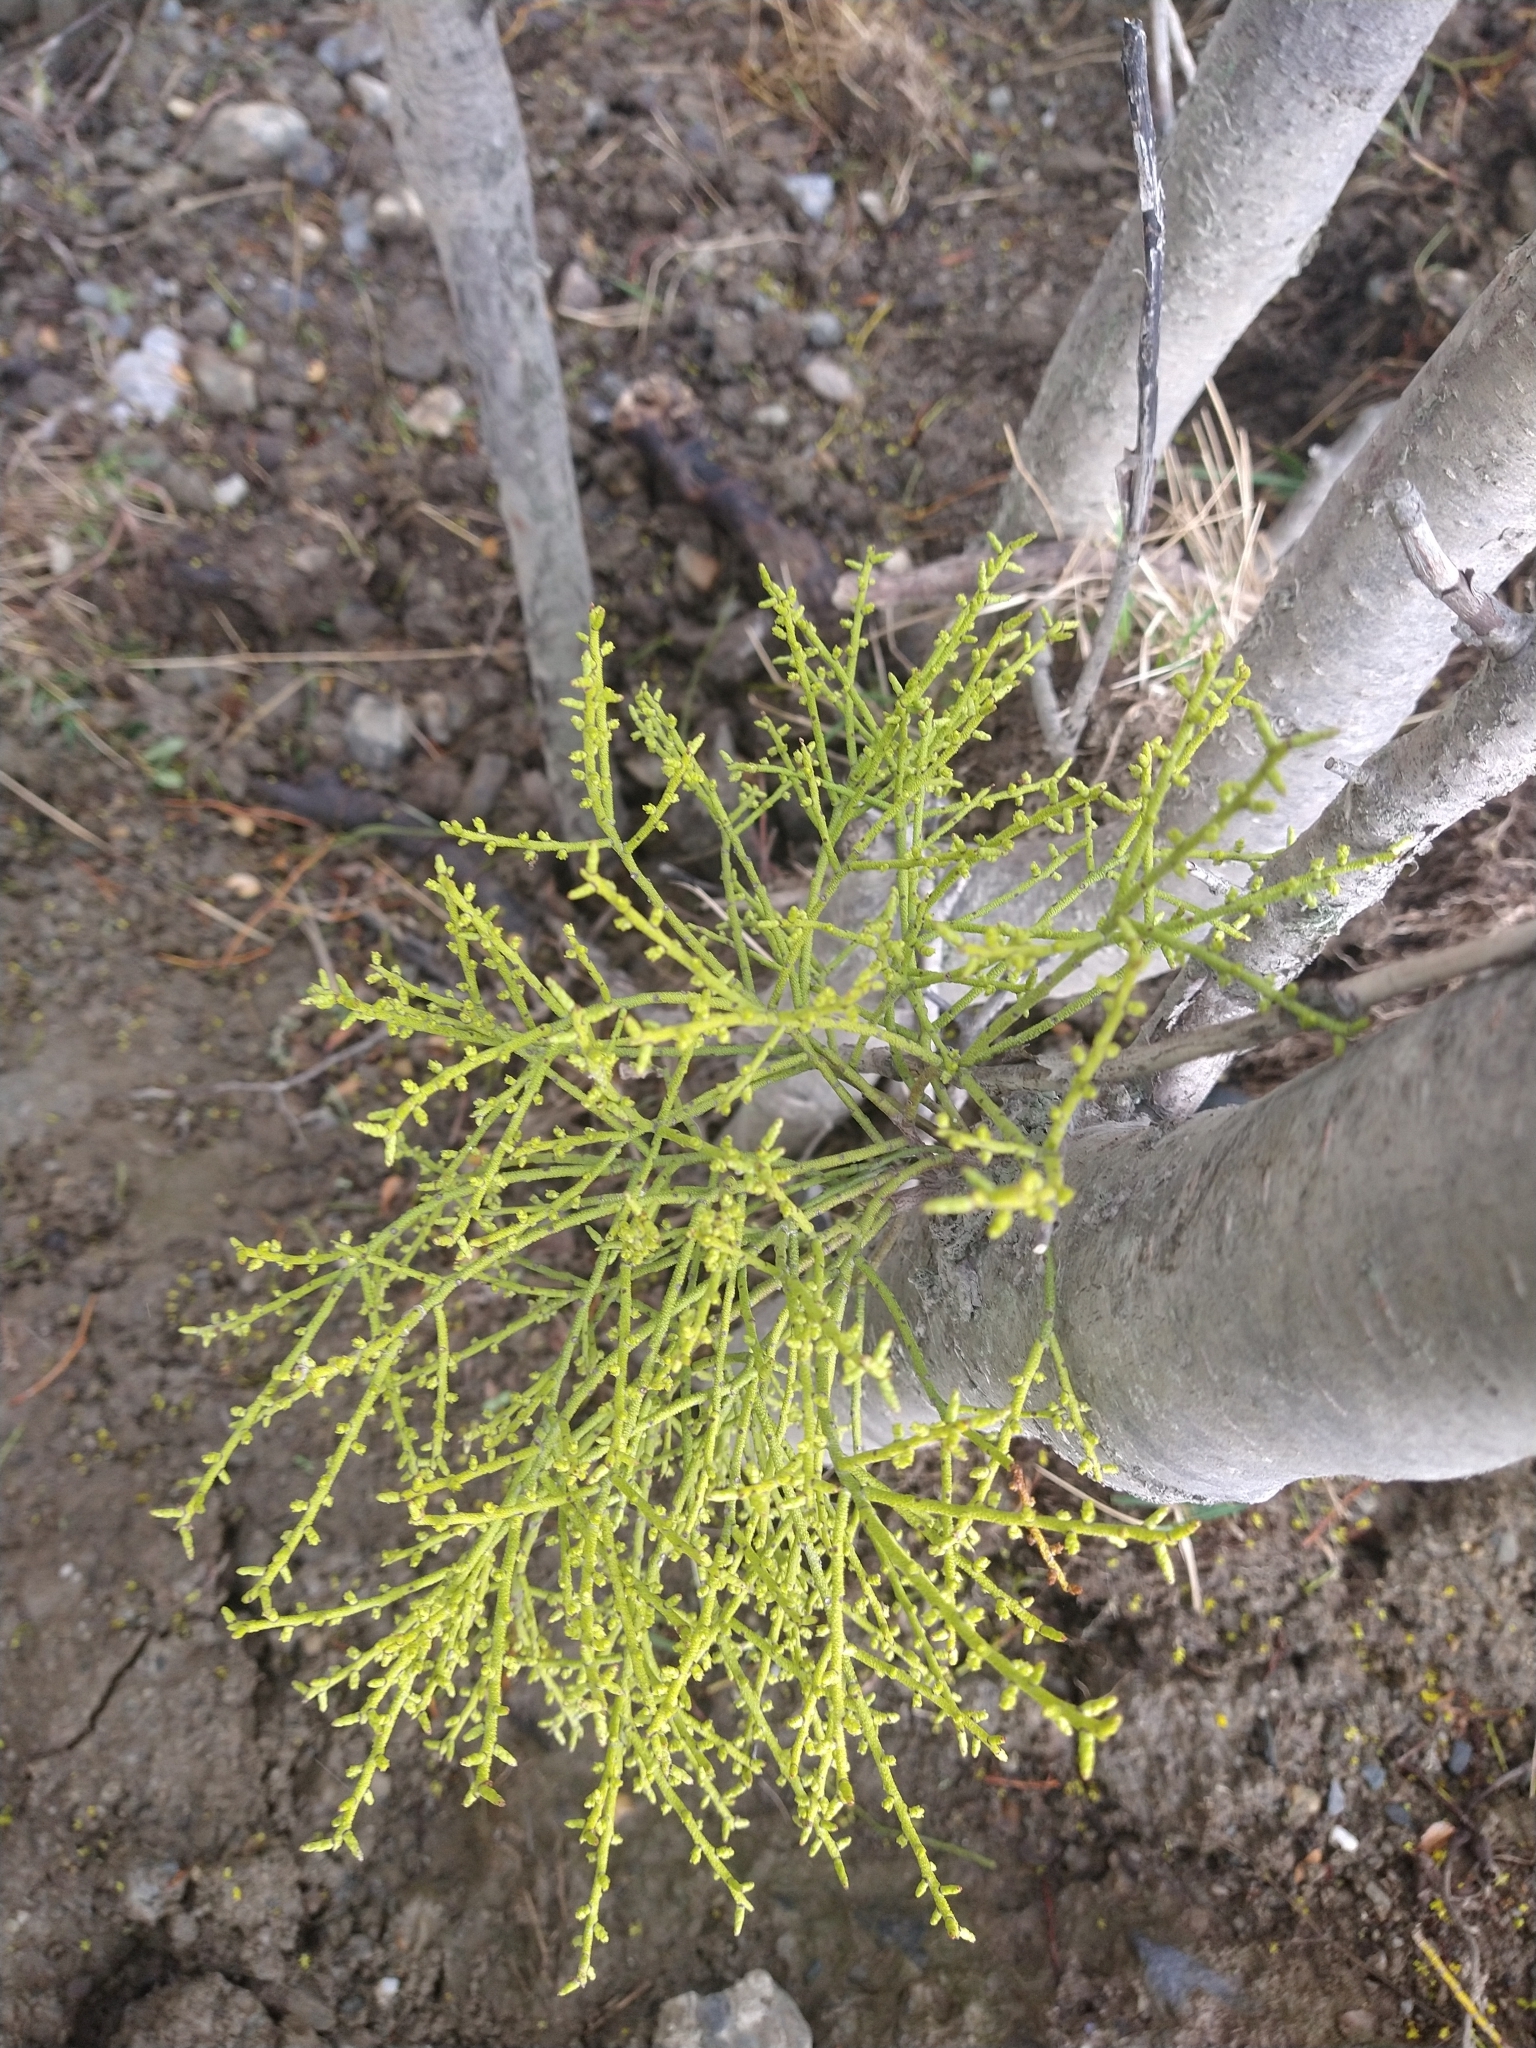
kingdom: Plantae
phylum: Tracheophyta
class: Magnoliopsida
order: Santalales
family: Misodendraceae
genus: Misodendrum
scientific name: Misodendrum punctulatum
